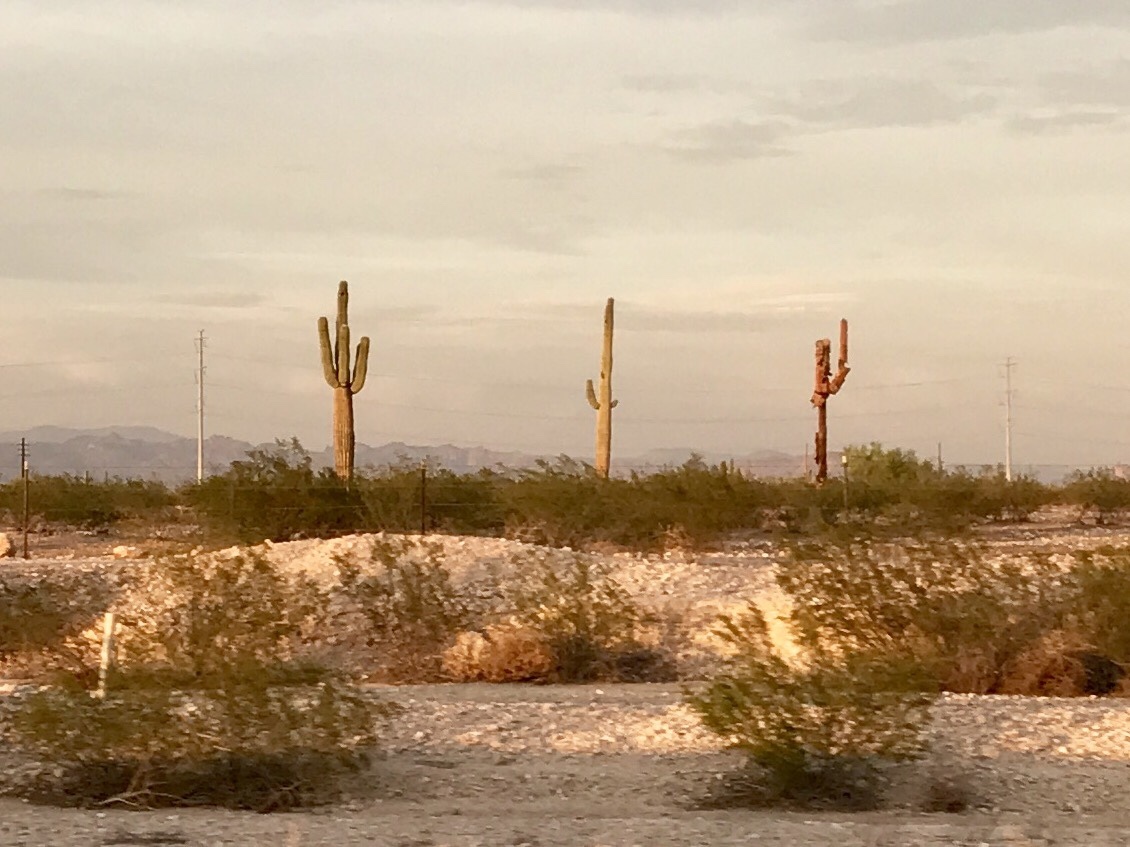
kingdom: Plantae
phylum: Tracheophyta
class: Magnoliopsida
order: Caryophyllales
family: Cactaceae
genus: Carnegiea
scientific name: Carnegiea gigantea
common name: Saguaro
